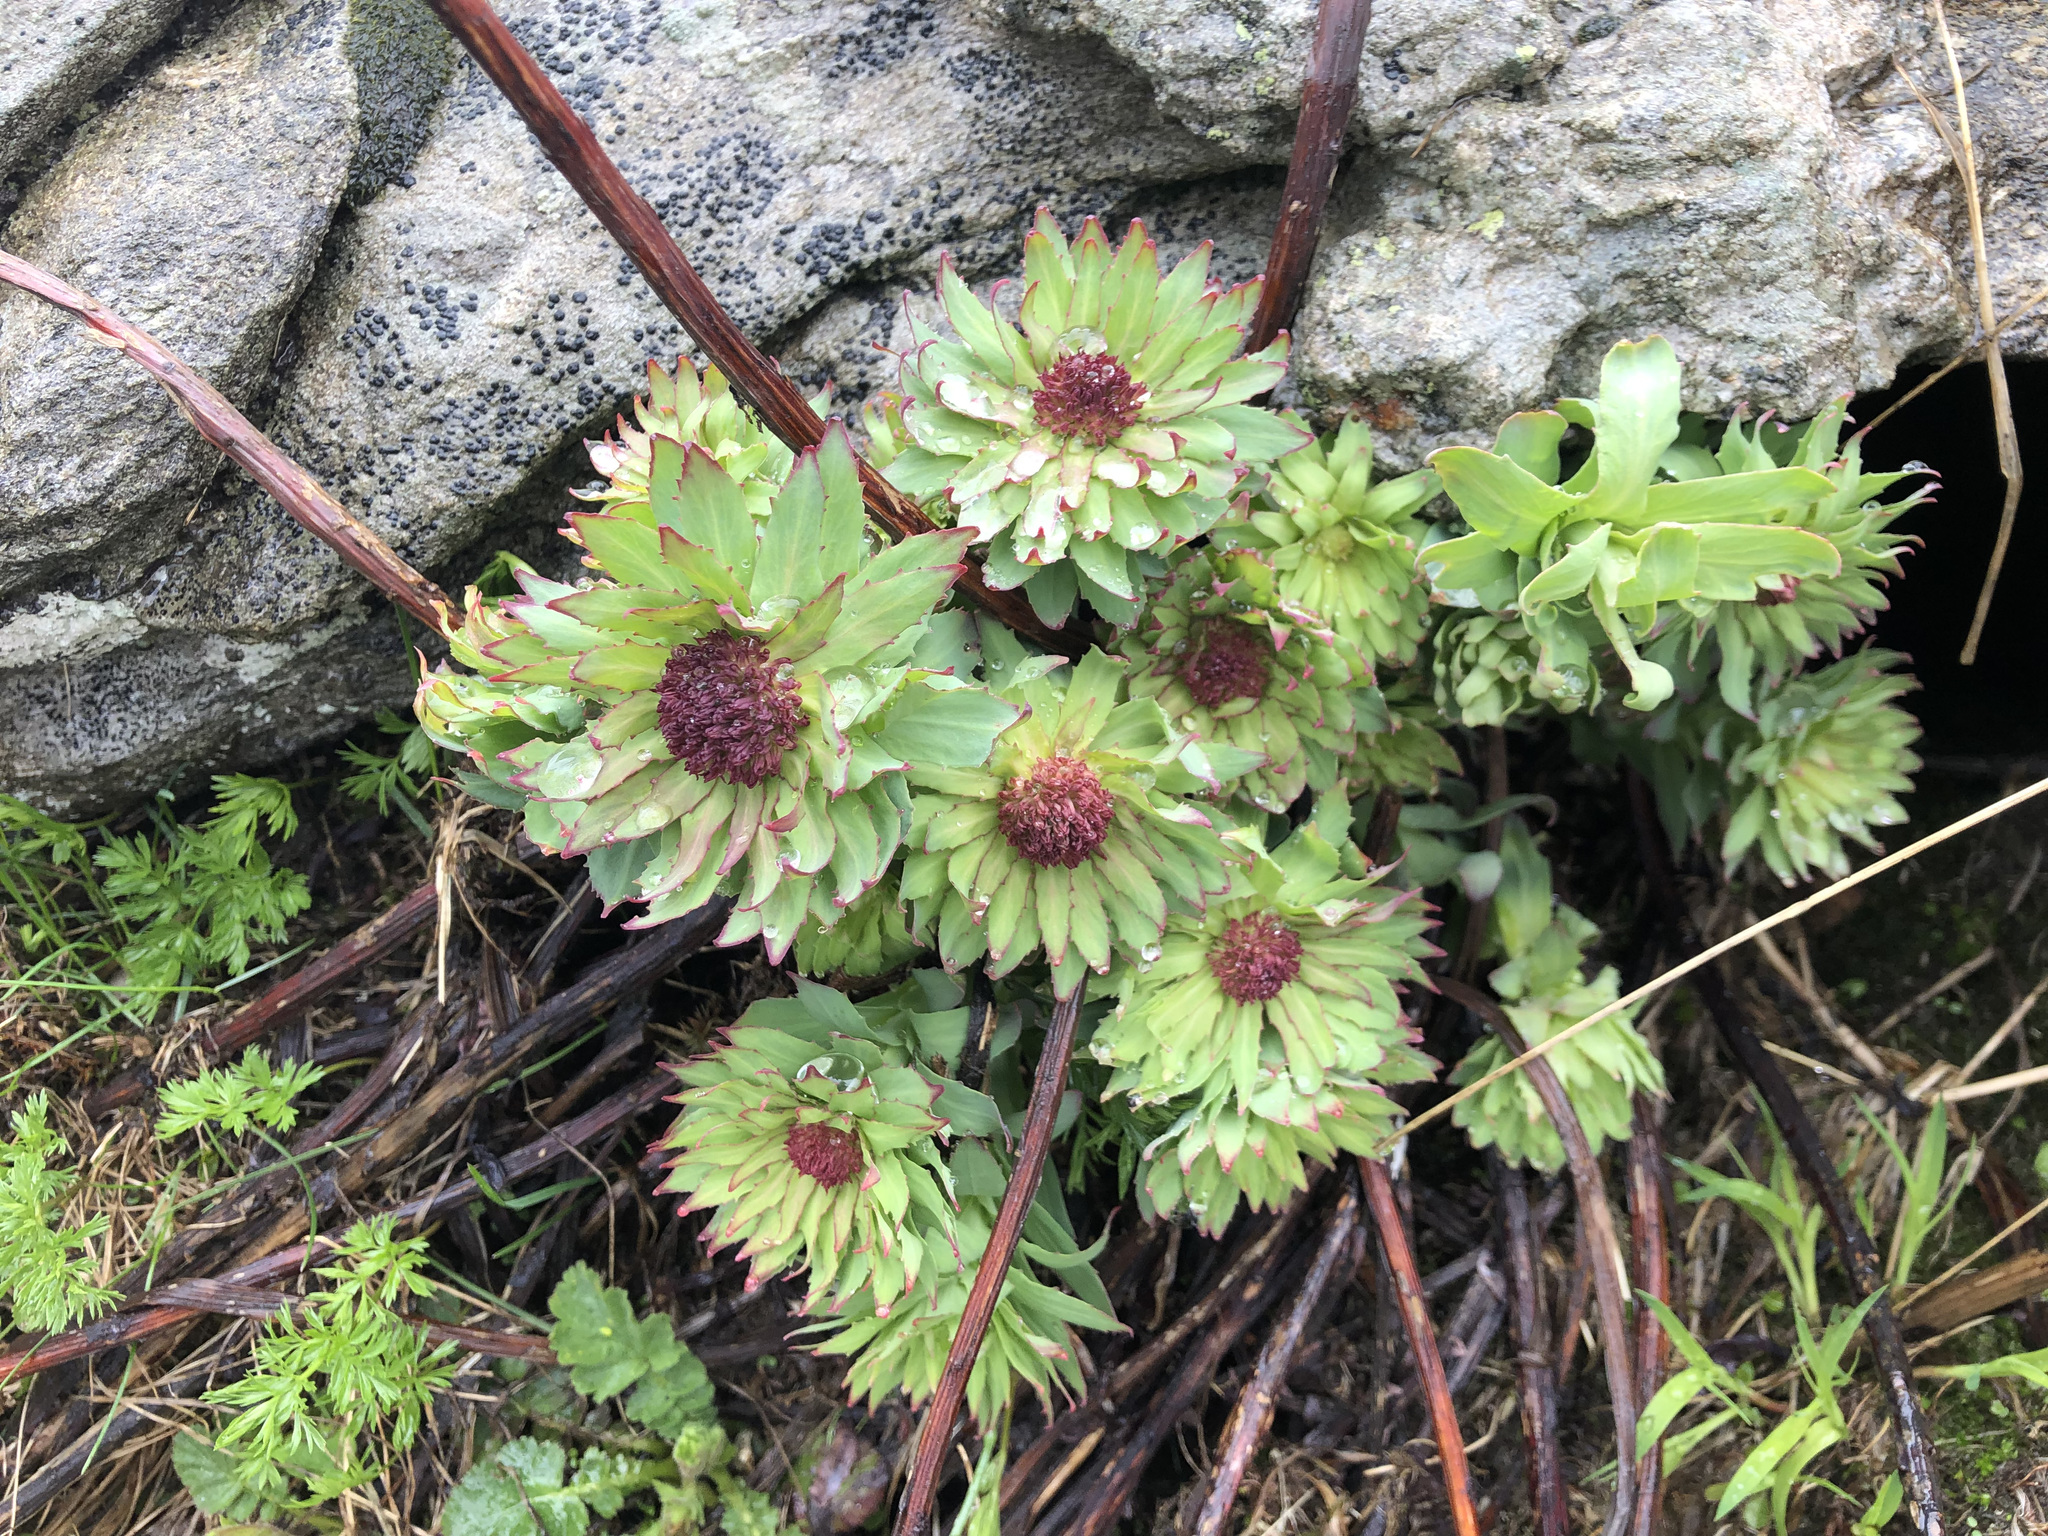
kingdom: Plantae
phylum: Tracheophyta
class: Magnoliopsida
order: Saxifragales
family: Crassulaceae
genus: Rhodiola
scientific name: Rhodiola rosea
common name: Roseroot
